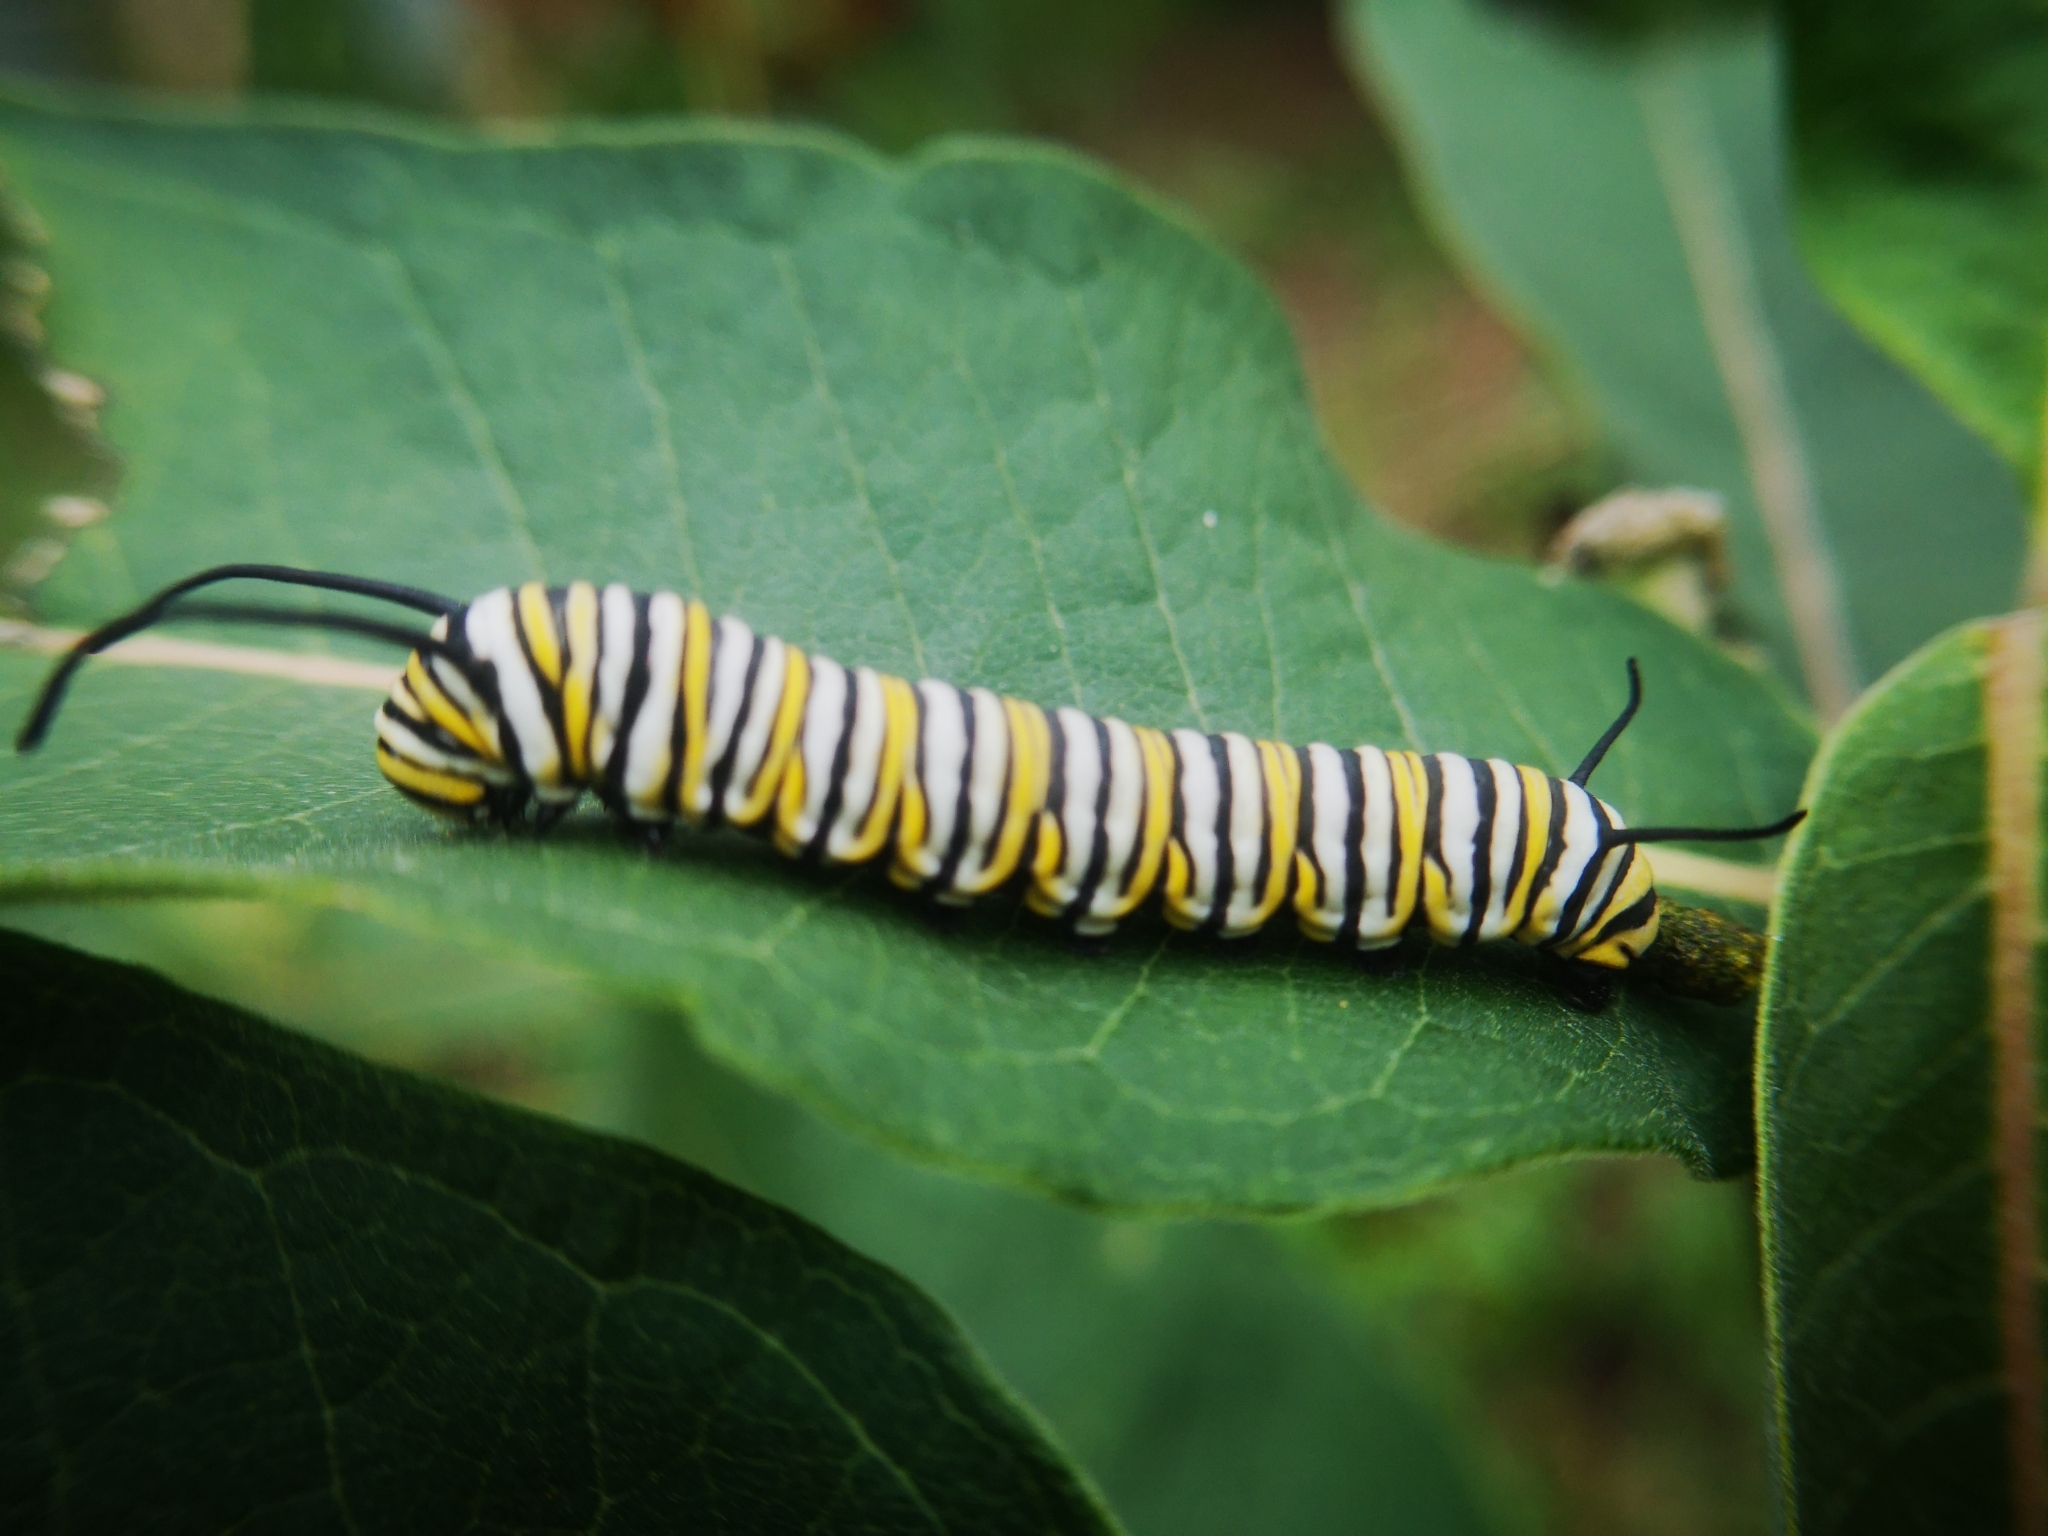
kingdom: Animalia
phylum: Arthropoda
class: Insecta
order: Lepidoptera
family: Nymphalidae
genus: Danaus
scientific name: Danaus plexippus
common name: Monarch
